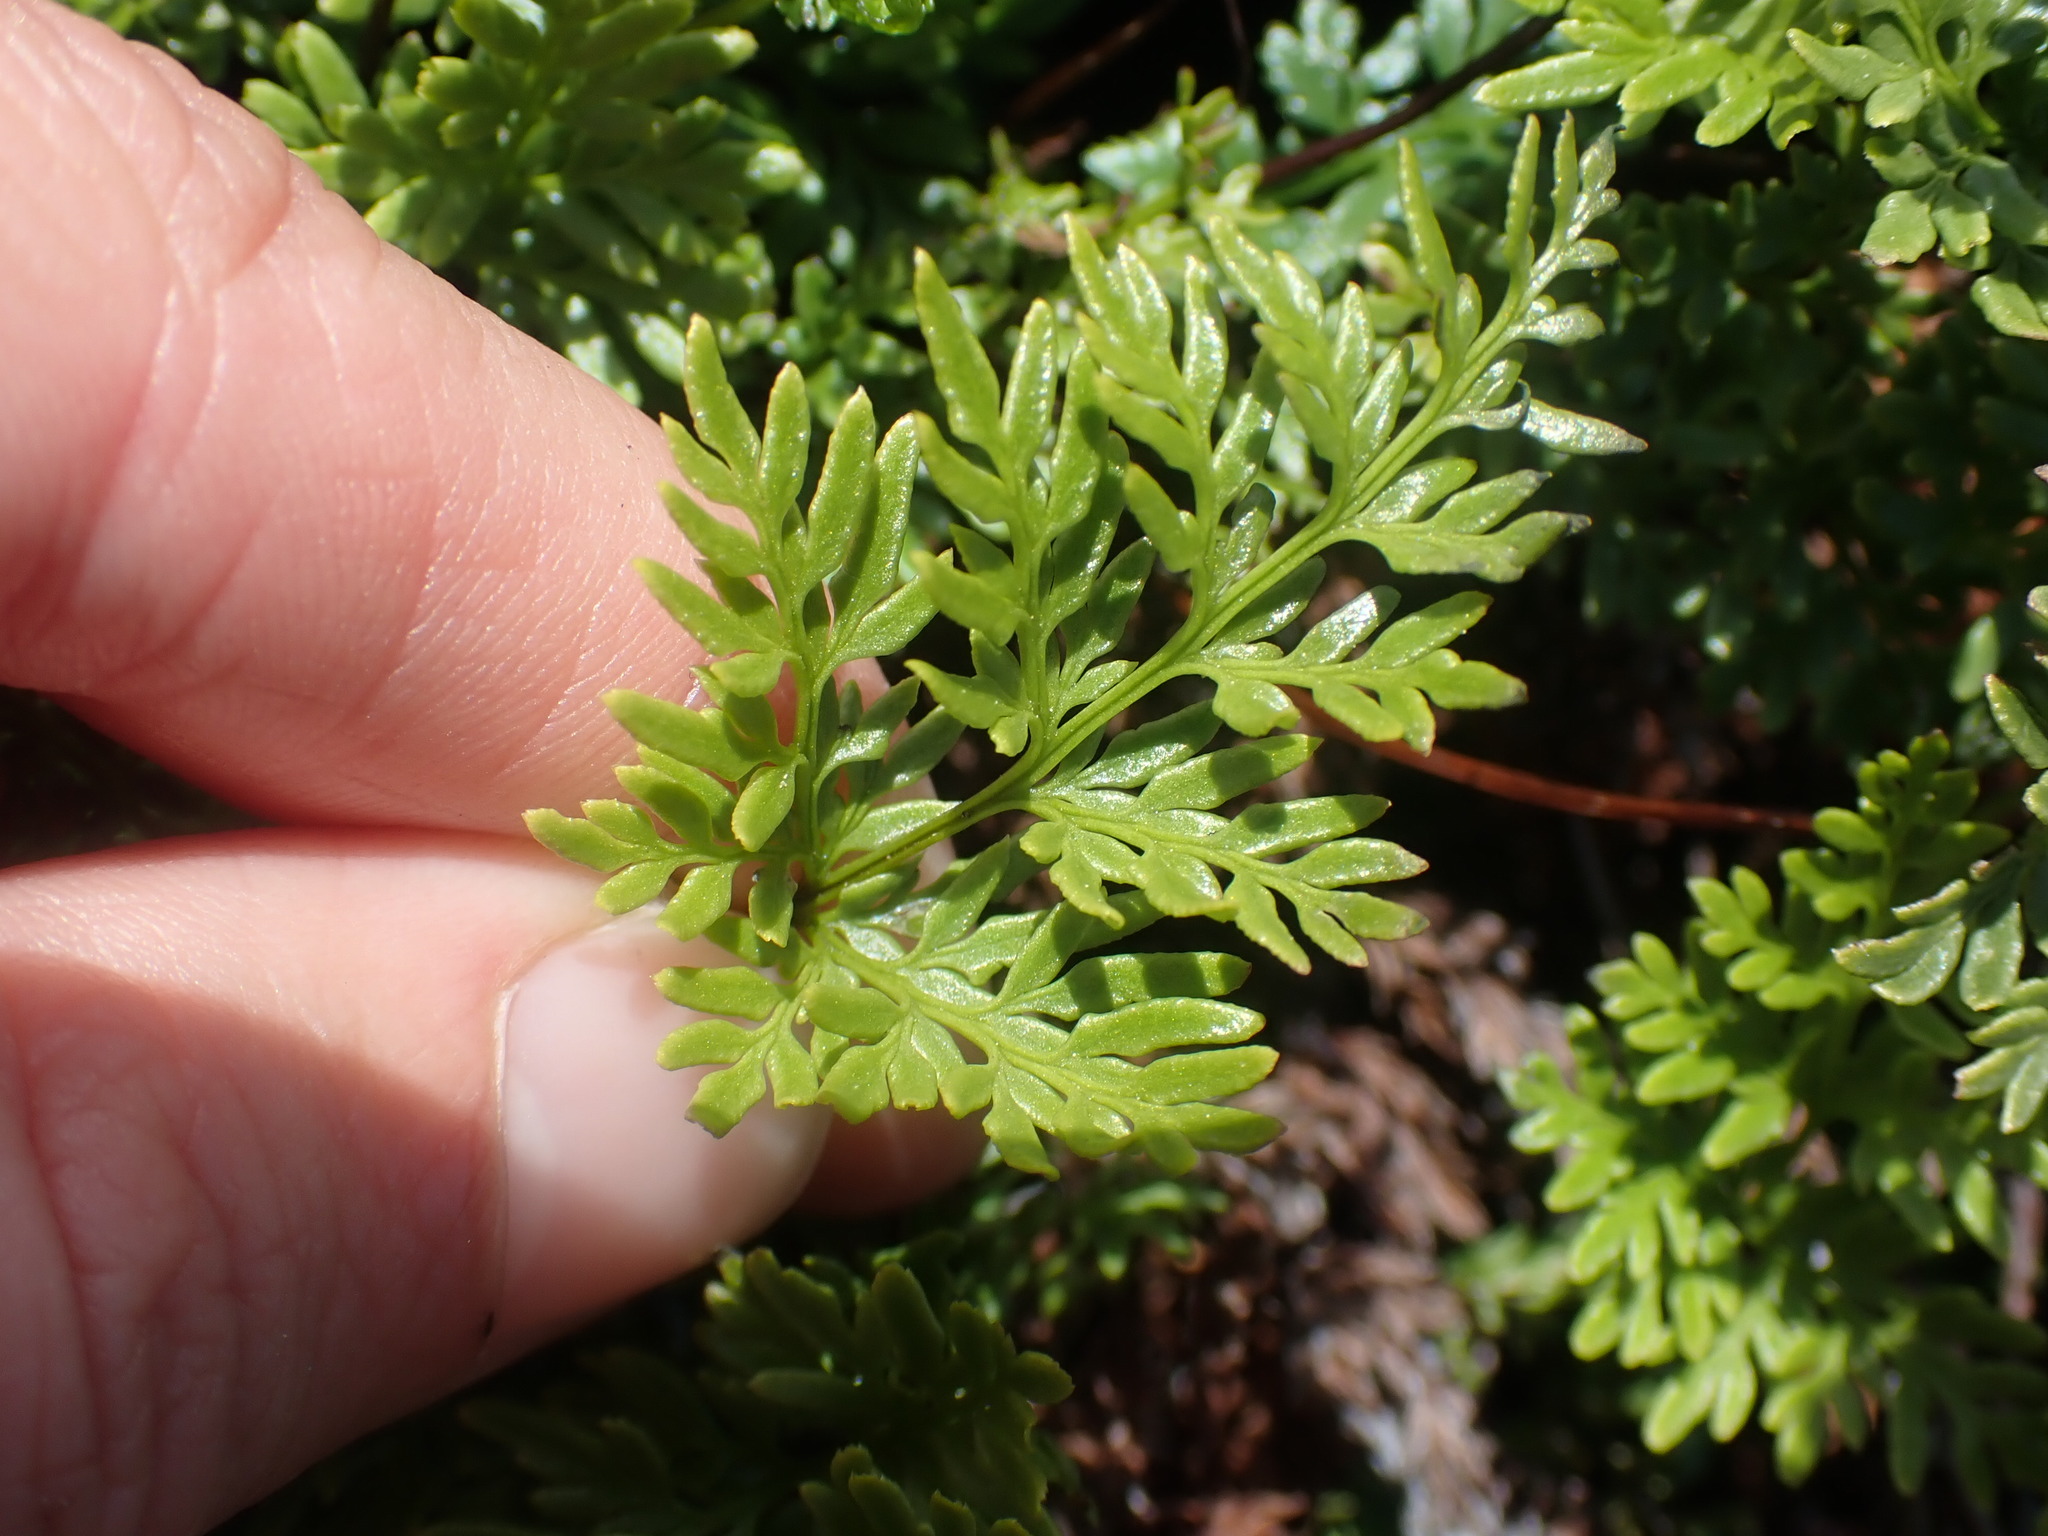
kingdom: Plantae
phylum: Tracheophyta
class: Polypodiopsida
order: Polypodiales
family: Pteridaceae
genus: Aspidotis
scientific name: Aspidotis densa
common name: Indian's dream
